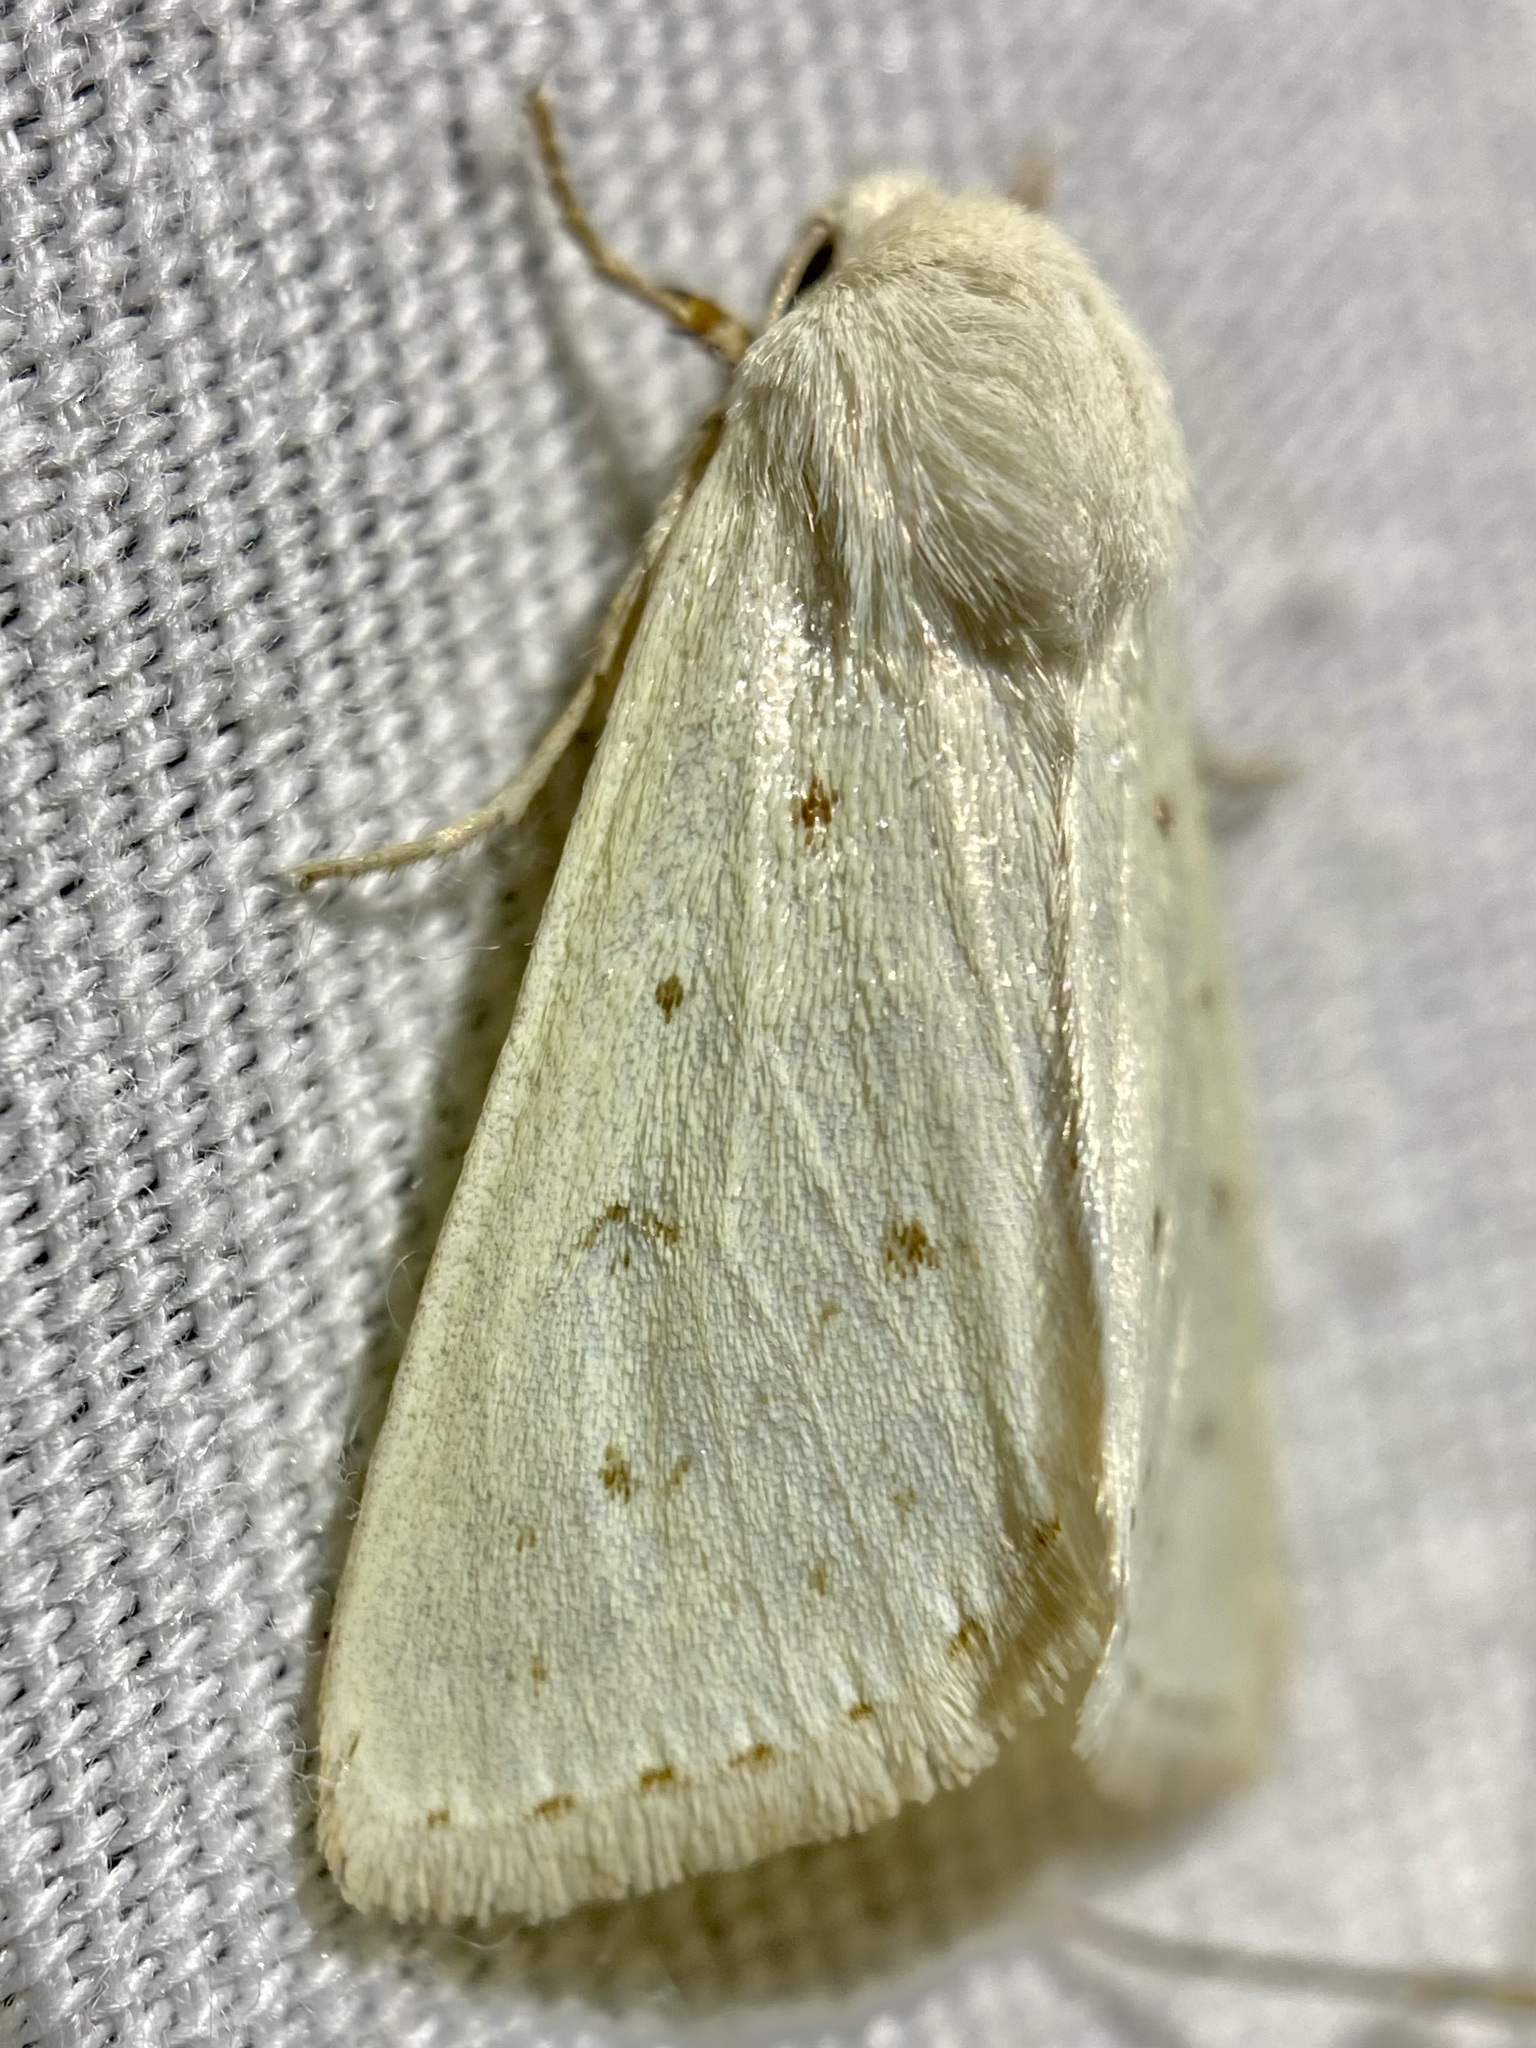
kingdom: Animalia
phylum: Arthropoda
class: Insecta
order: Lepidoptera
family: Noctuidae
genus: Schinia
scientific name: Schinia luxa
